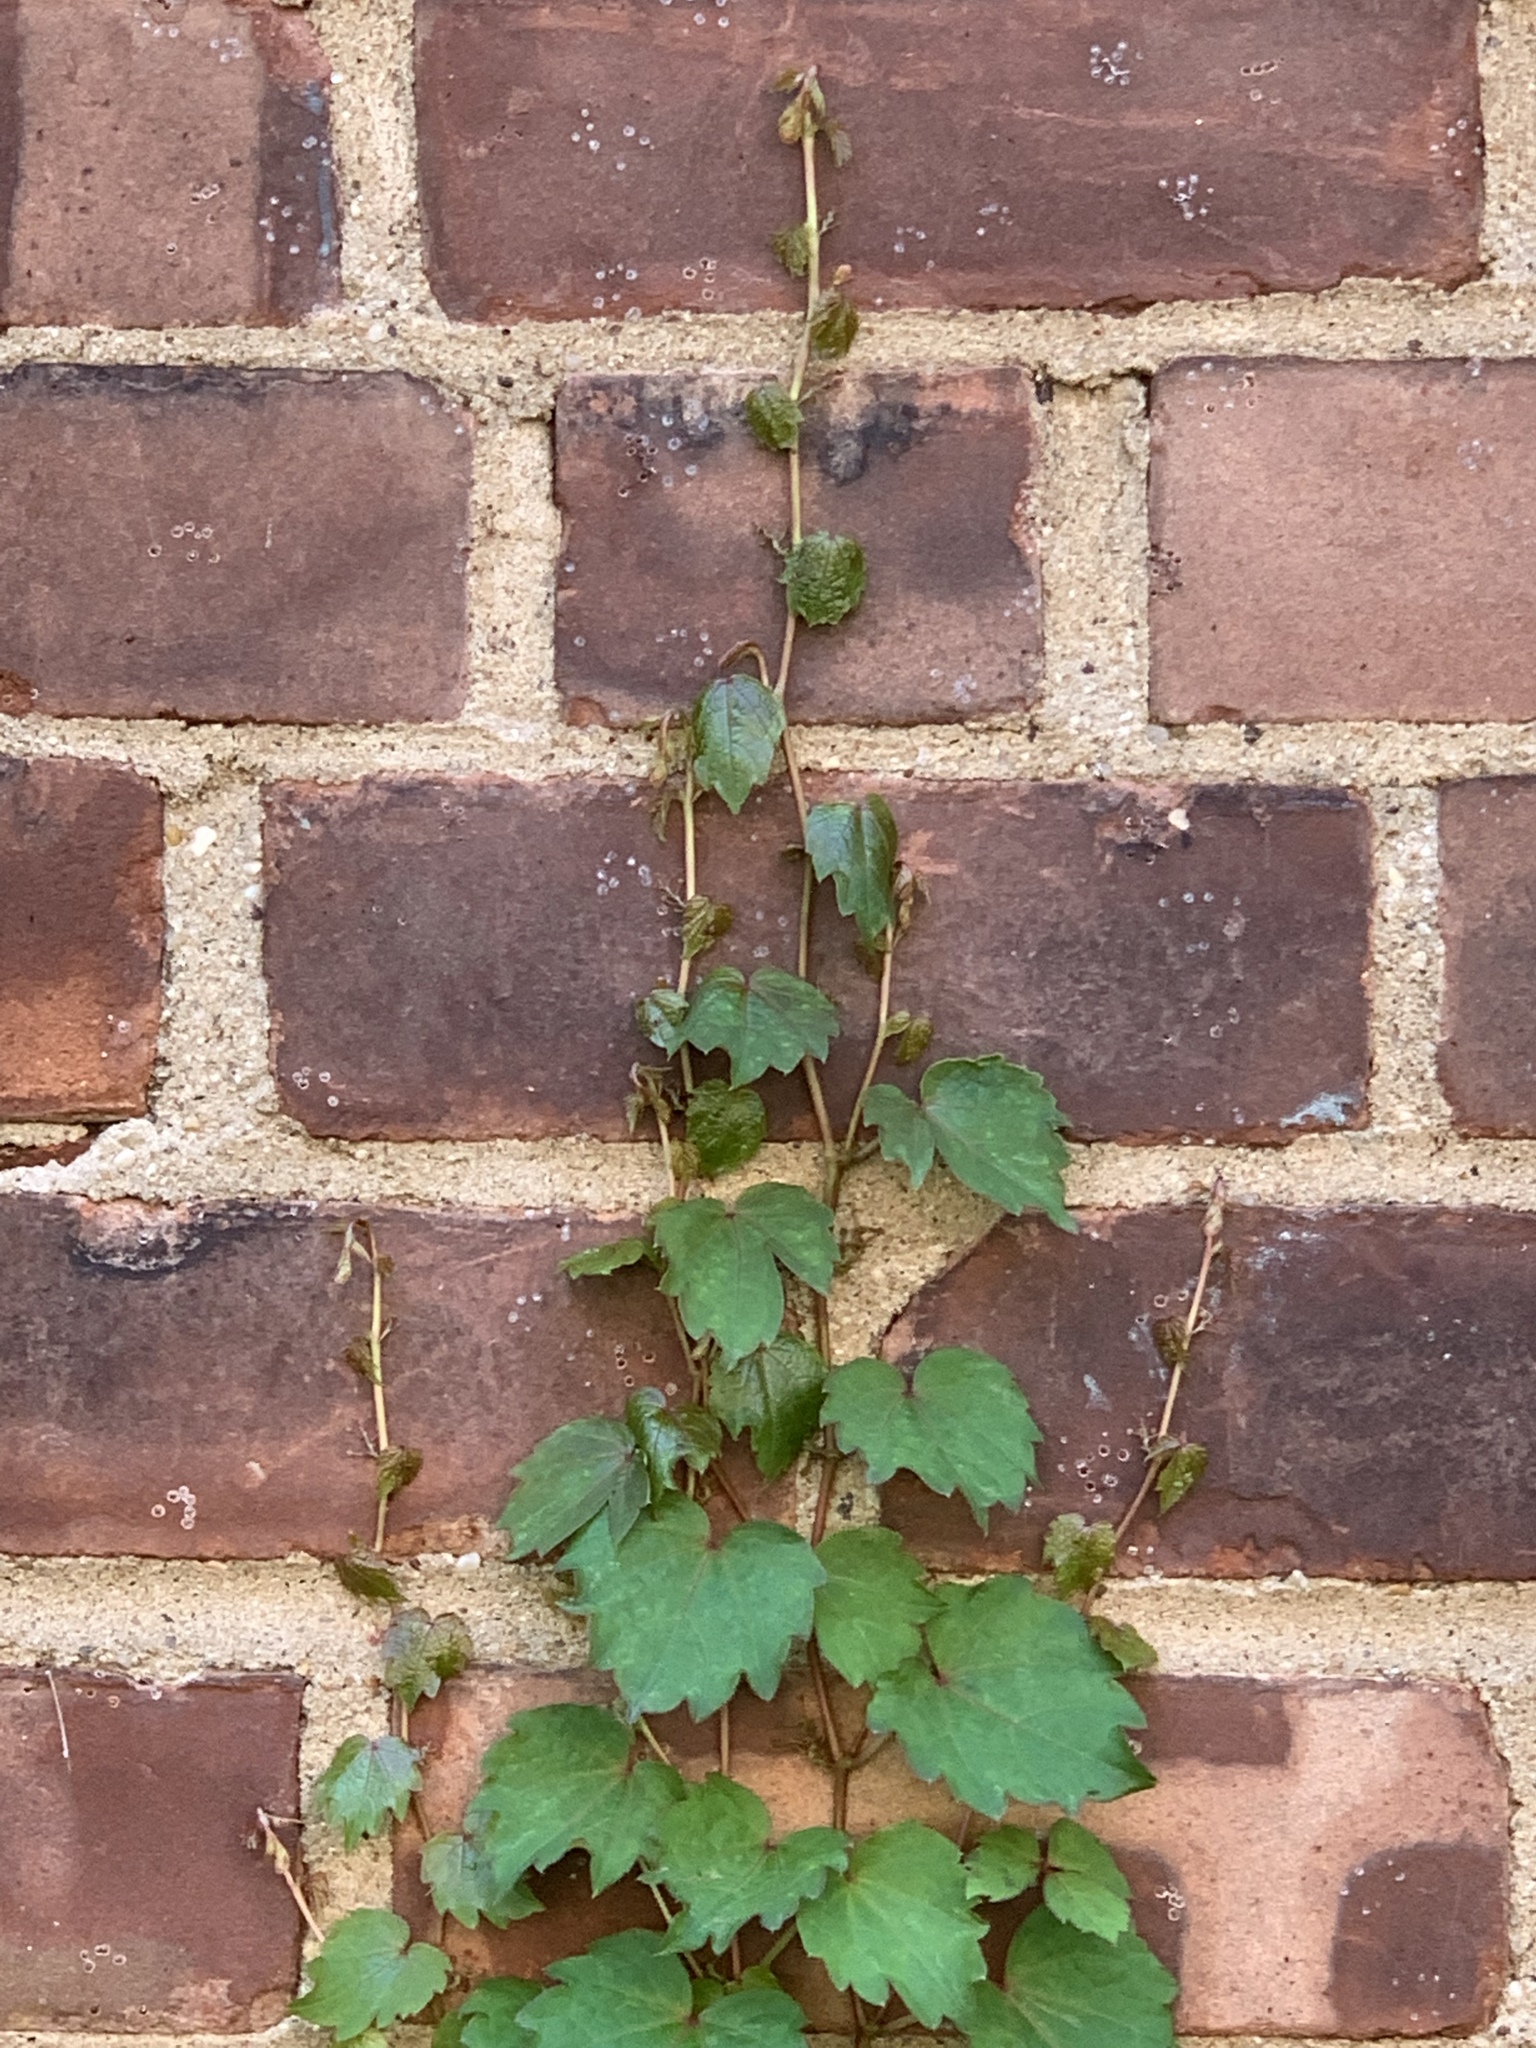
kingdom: Plantae
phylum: Tracheophyta
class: Magnoliopsida
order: Vitales
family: Vitaceae
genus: Parthenocissus
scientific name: Parthenocissus tricuspidata
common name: Boston ivy
